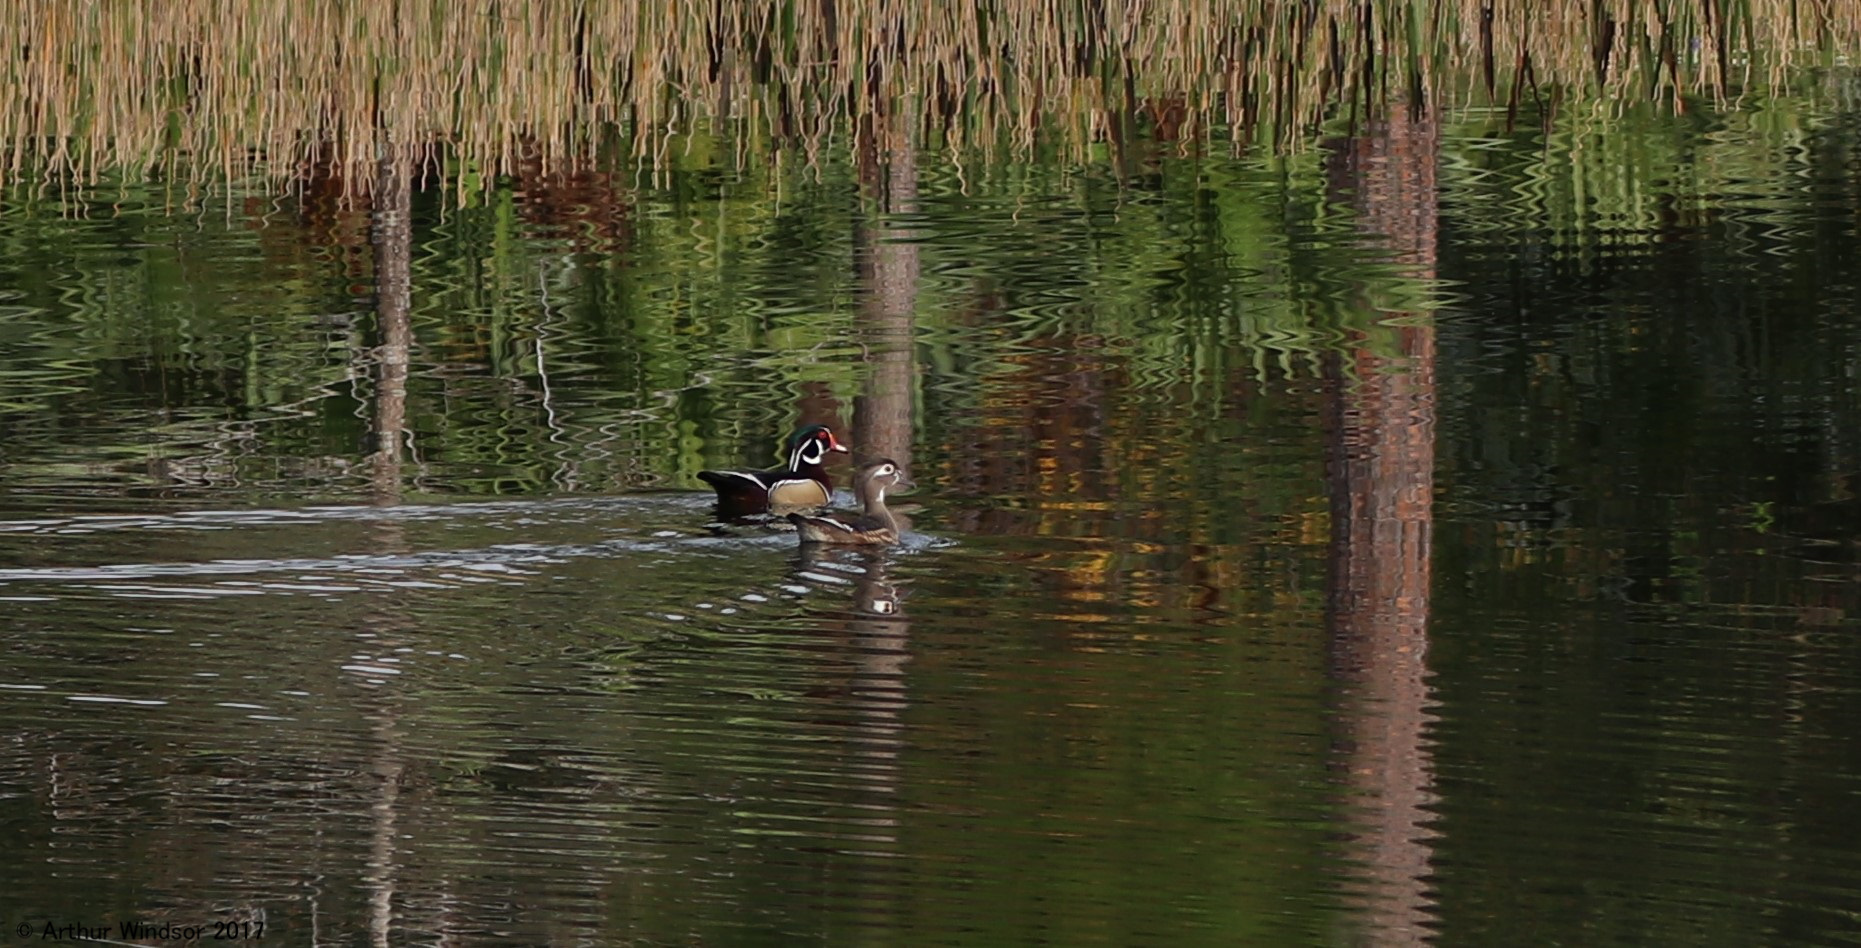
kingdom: Animalia
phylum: Chordata
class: Aves
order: Anseriformes
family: Anatidae
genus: Aix
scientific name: Aix sponsa
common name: Wood duck
